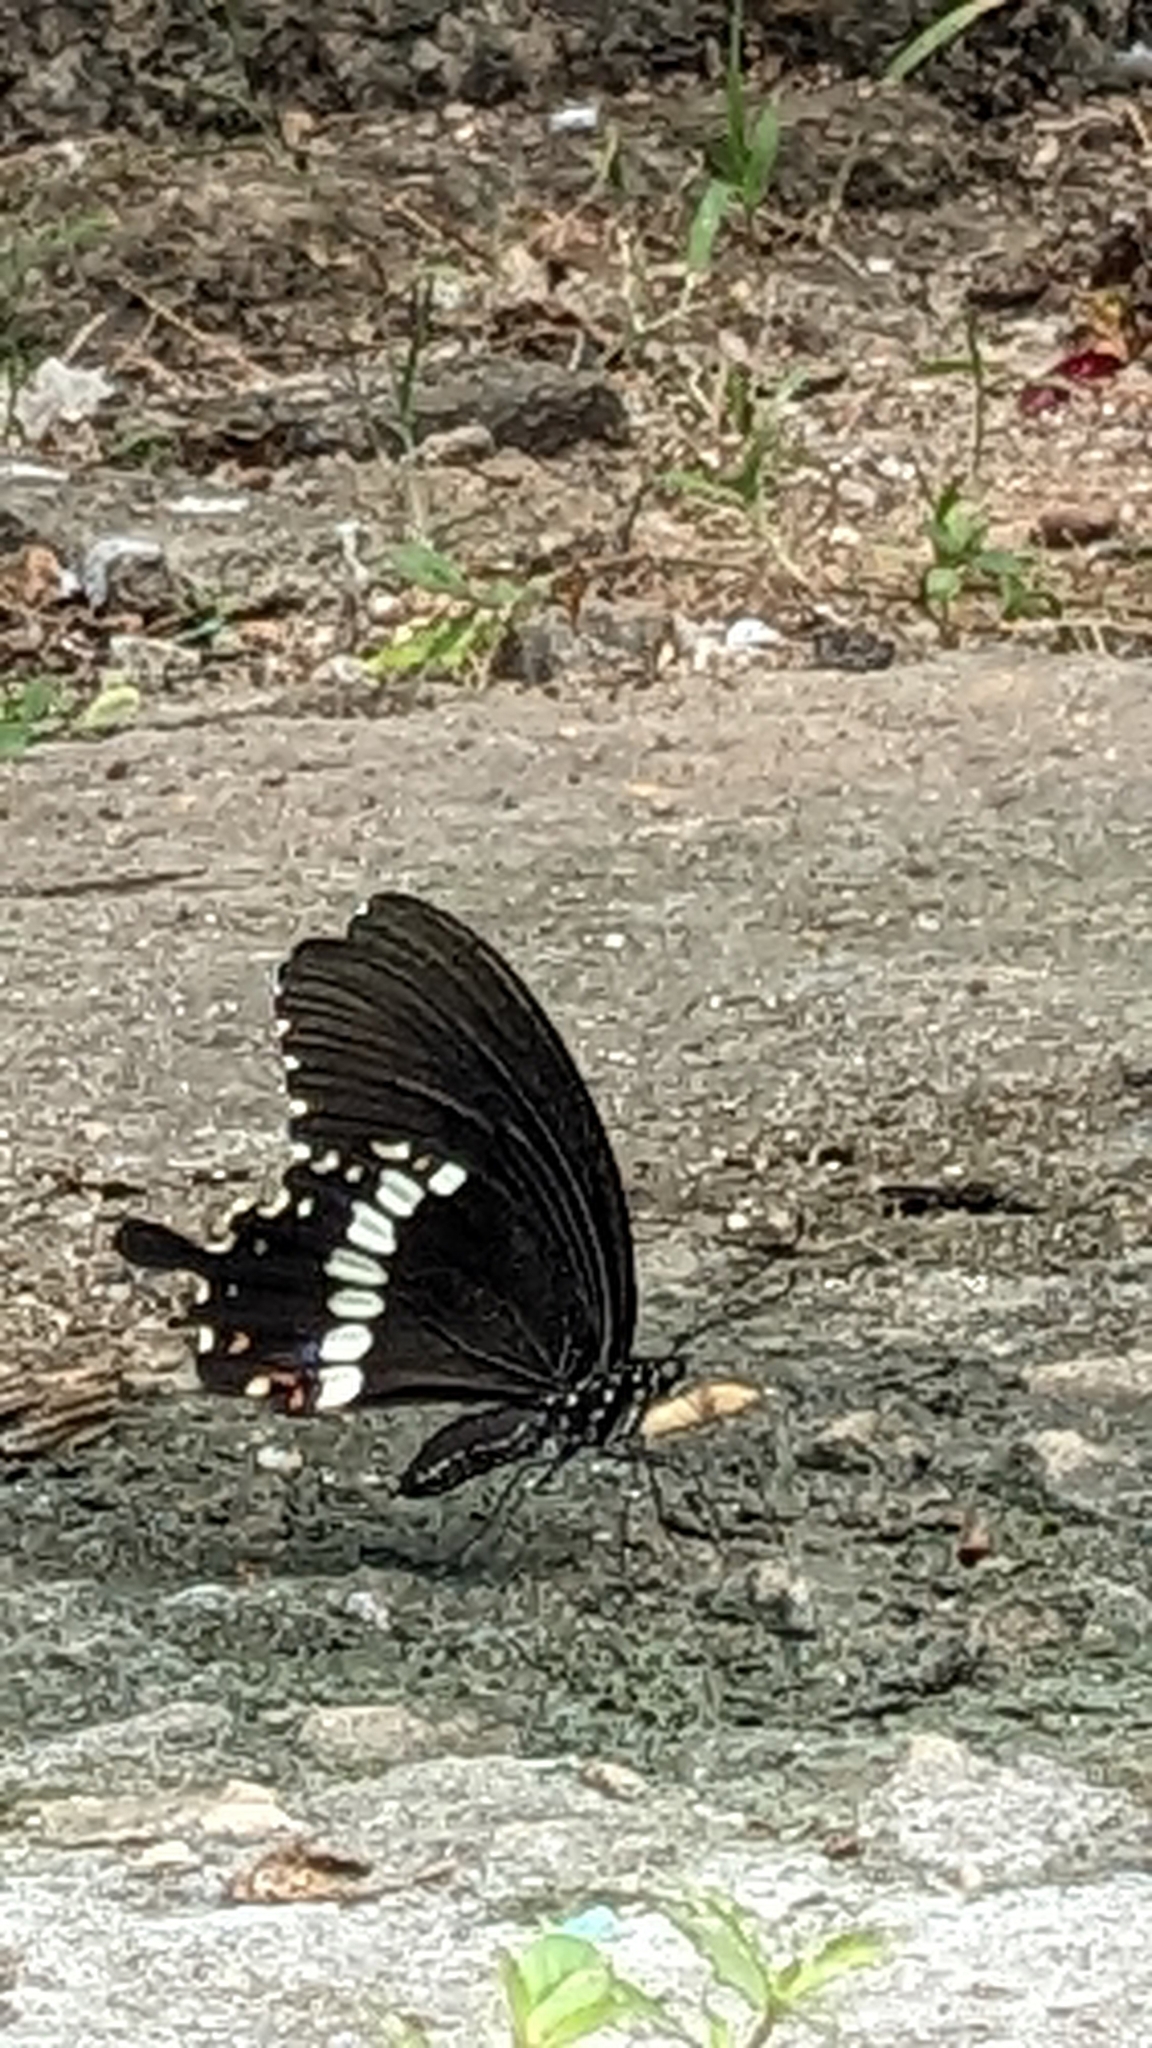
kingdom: Animalia
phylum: Arthropoda
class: Insecta
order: Lepidoptera
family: Papilionidae
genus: Papilio
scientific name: Papilio polytes
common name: Common mormon
